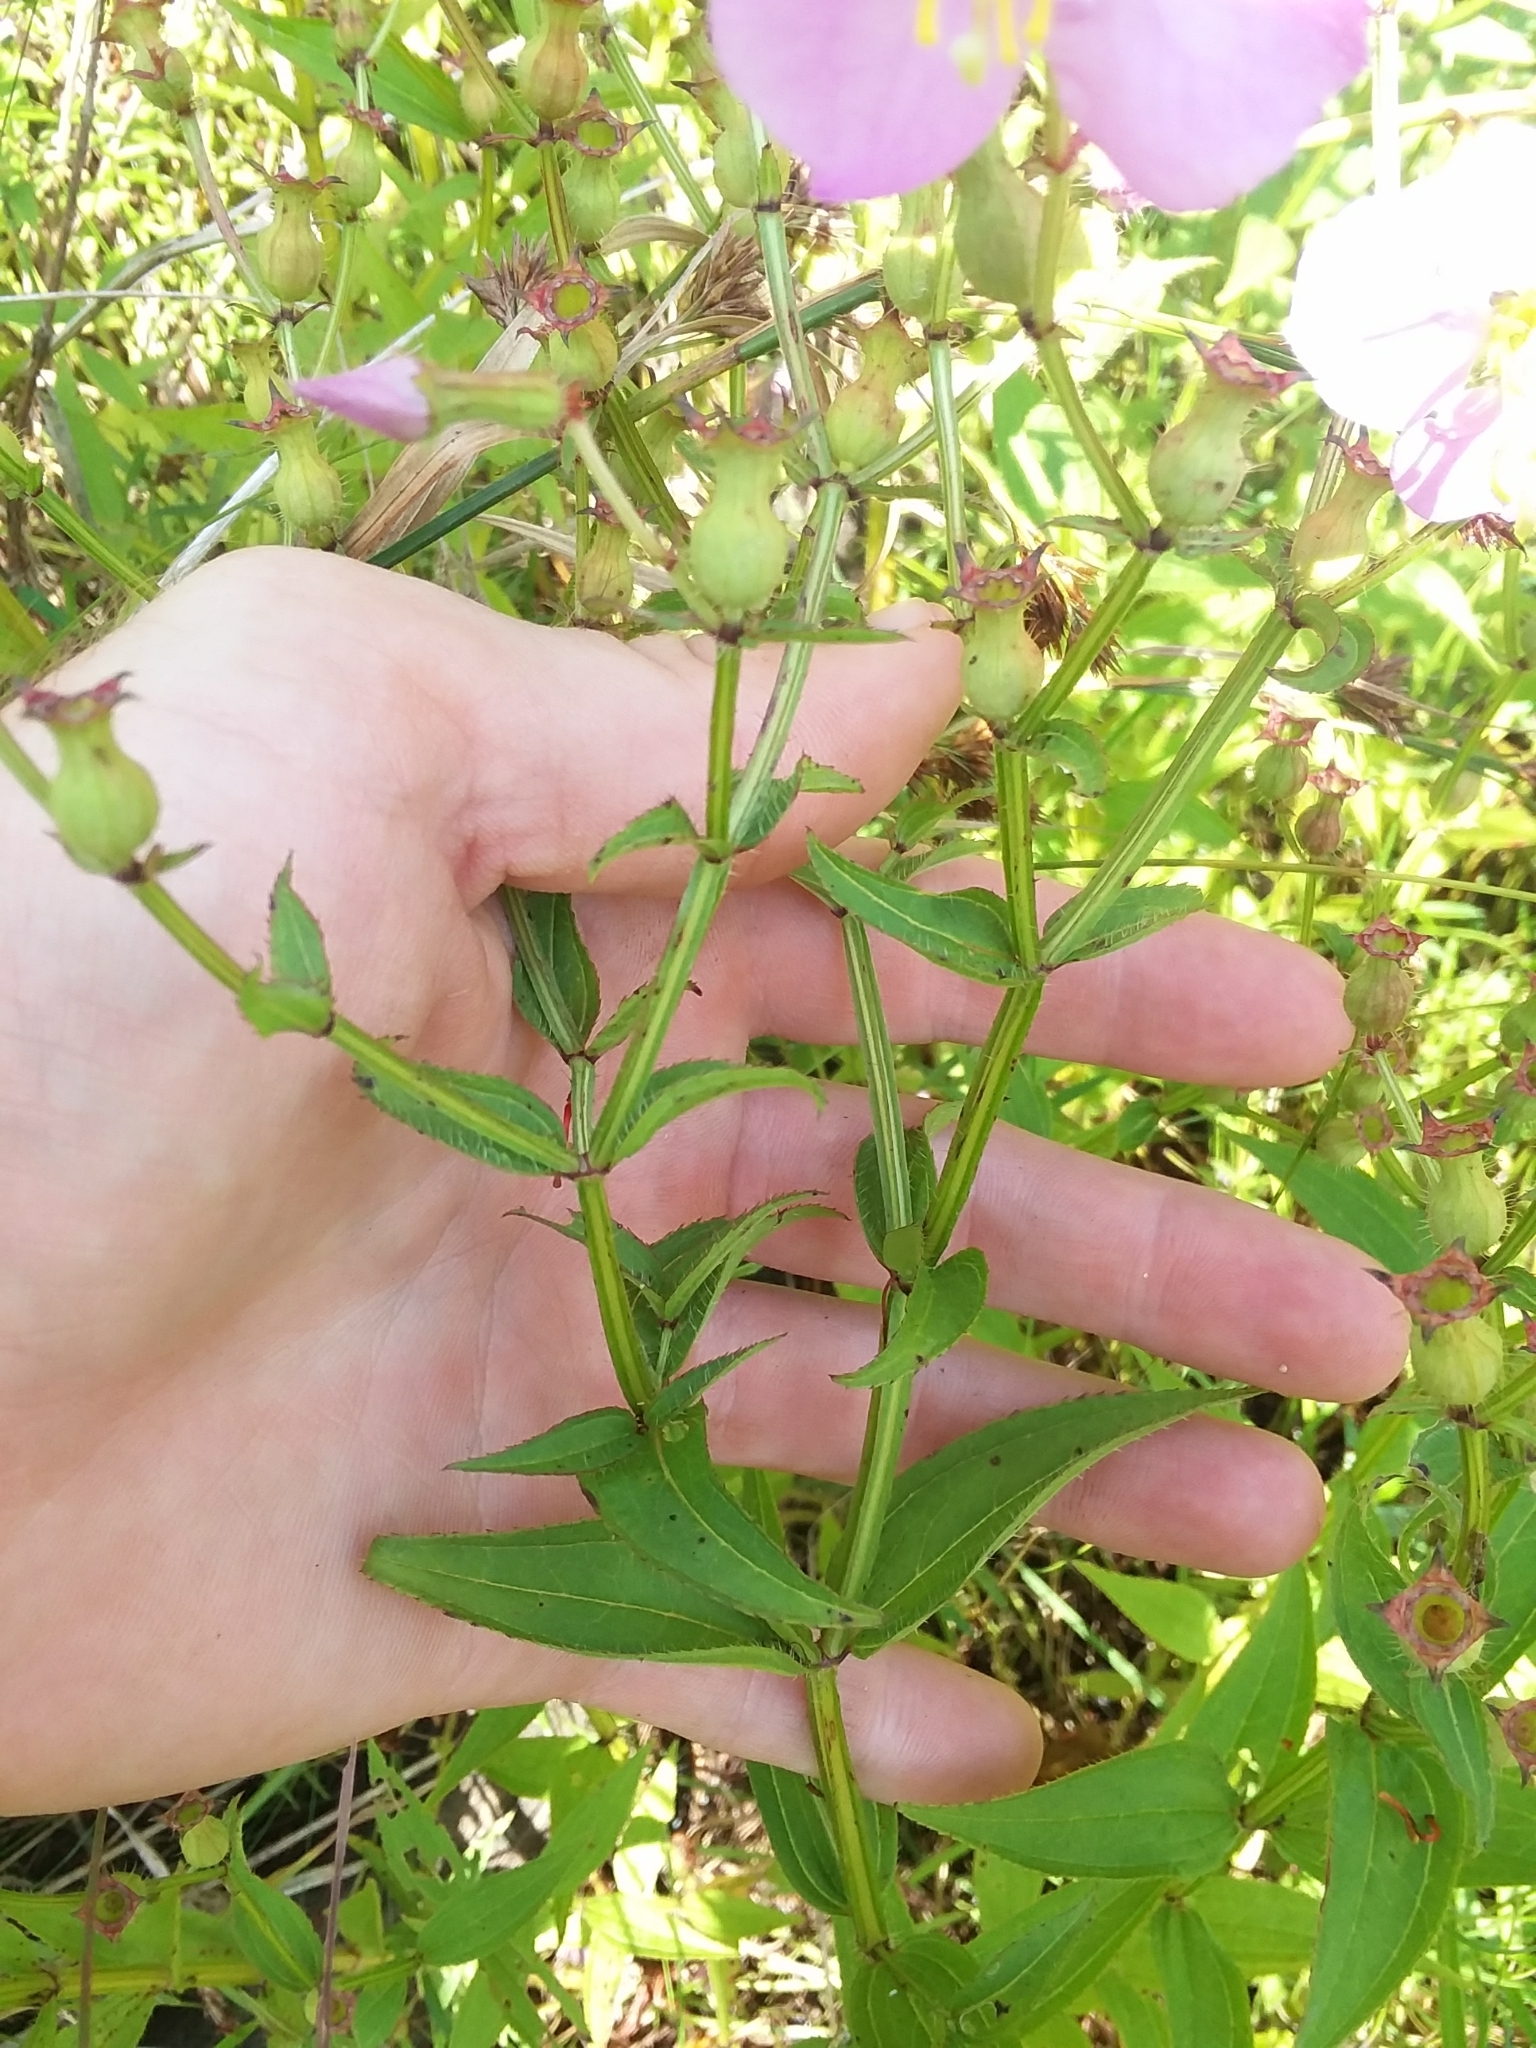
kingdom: Plantae
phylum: Tracheophyta
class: Magnoliopsida
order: Myrtales
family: Melastomataceae
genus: Rhexia
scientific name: Rhexia virginica
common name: Common meadow beauty
